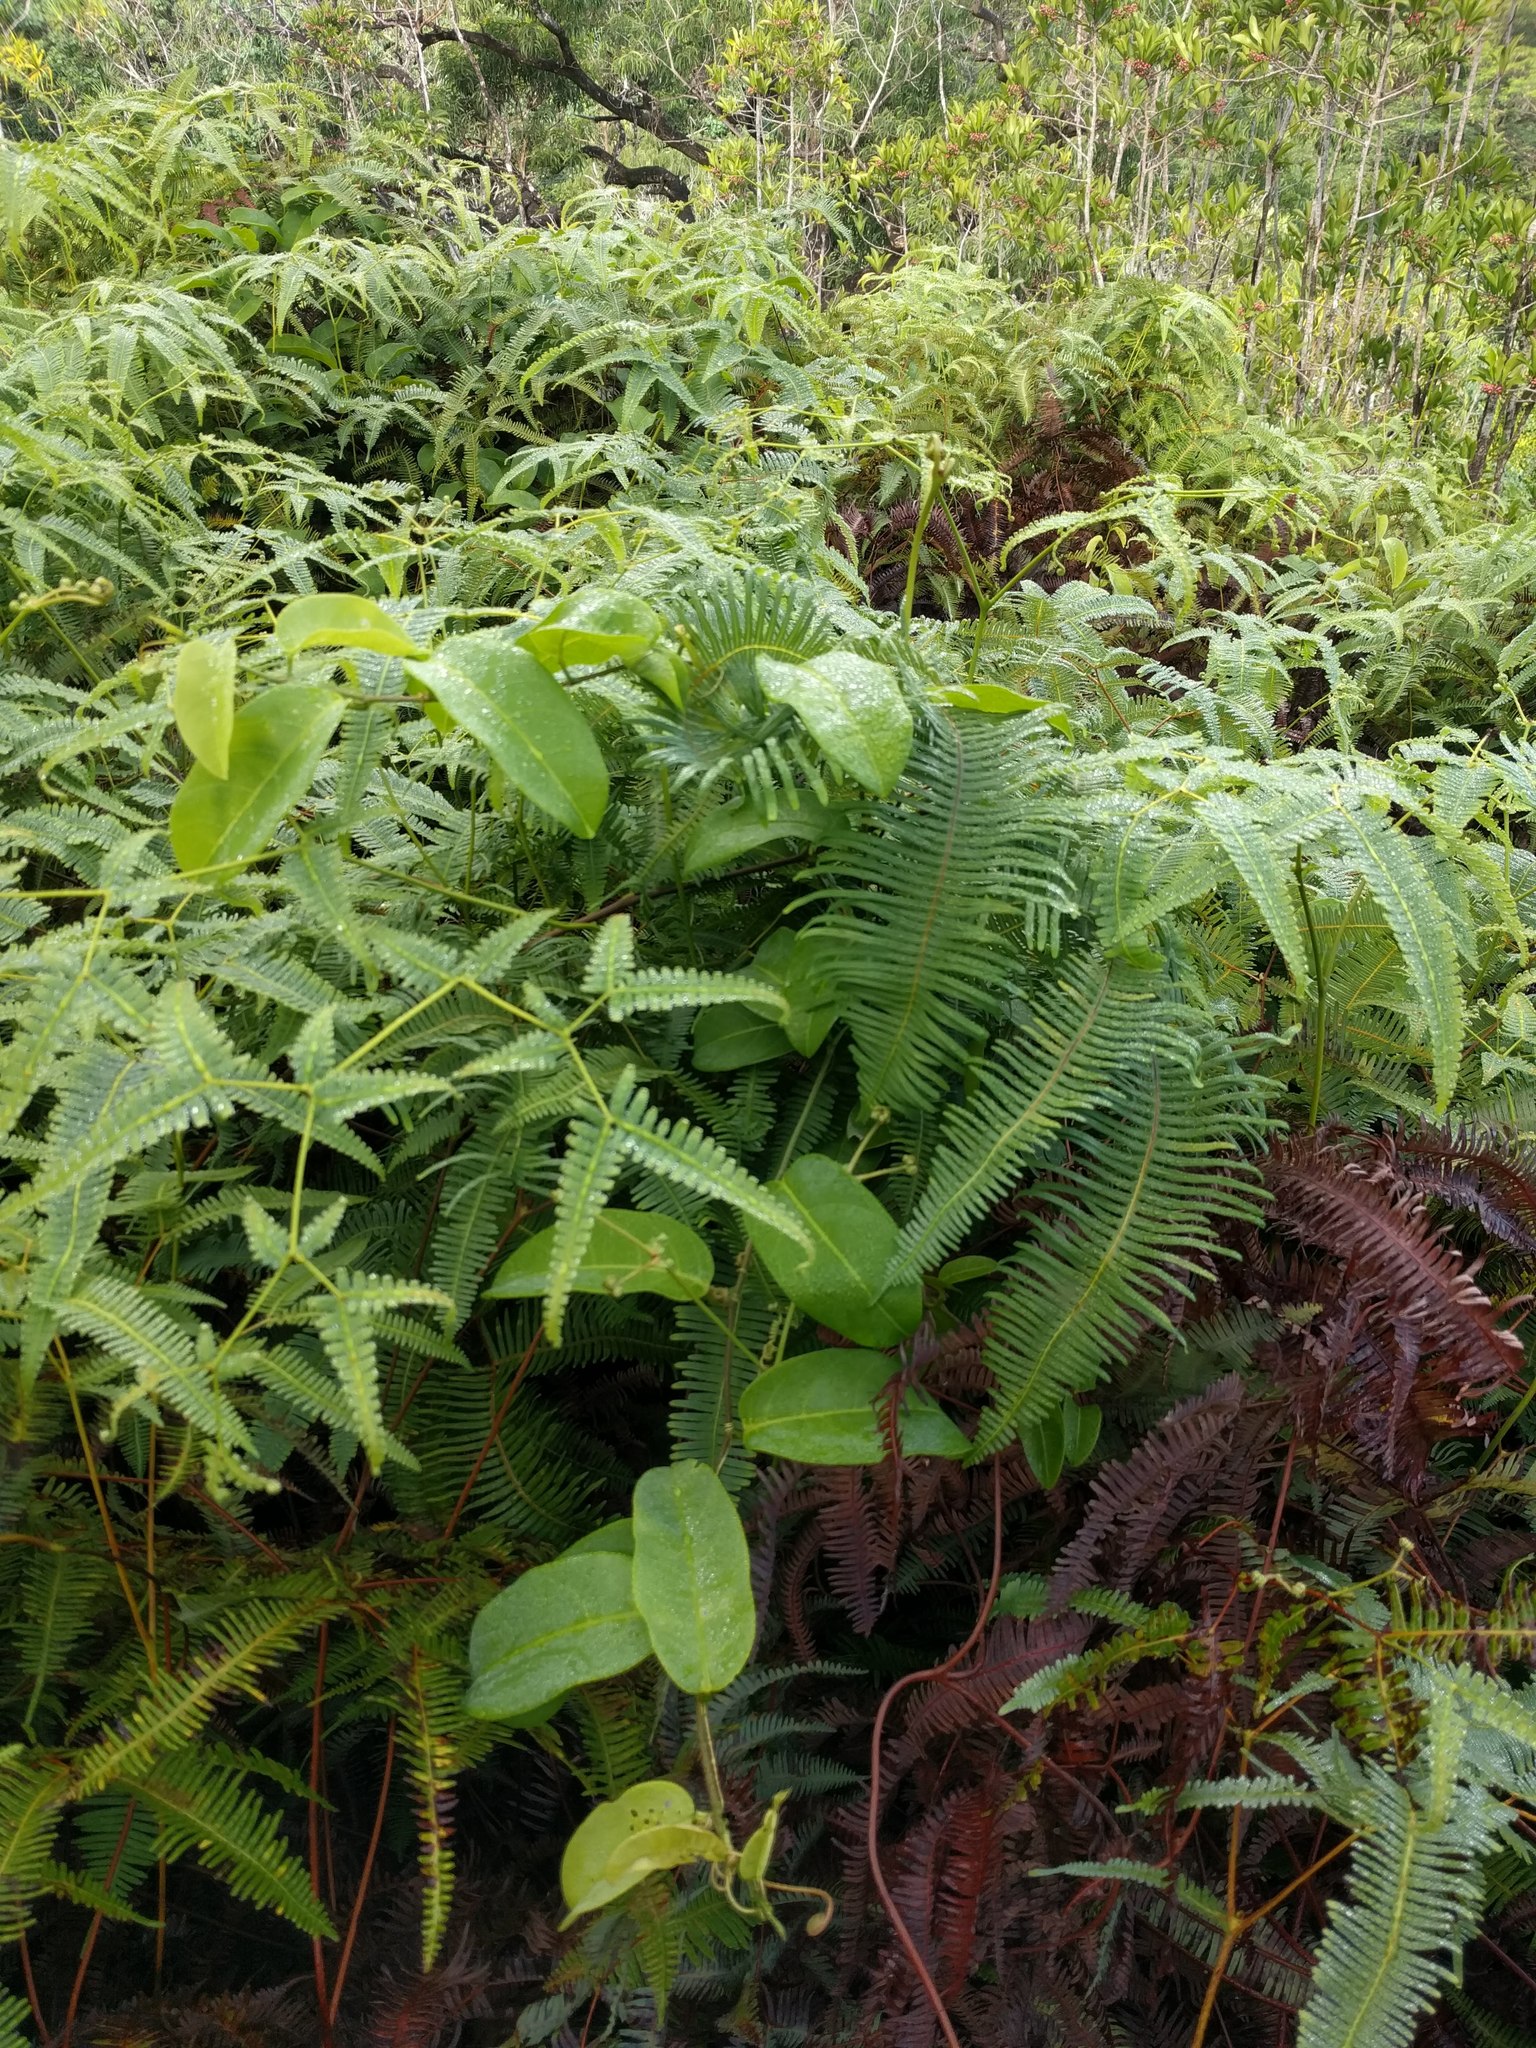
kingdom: Plantae
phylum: Tracheophyta
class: Magnoliopsida
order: Malpighiales
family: Passifloraceae
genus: Passiflora
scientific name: Passiflora laurifolia
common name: Bell apple
